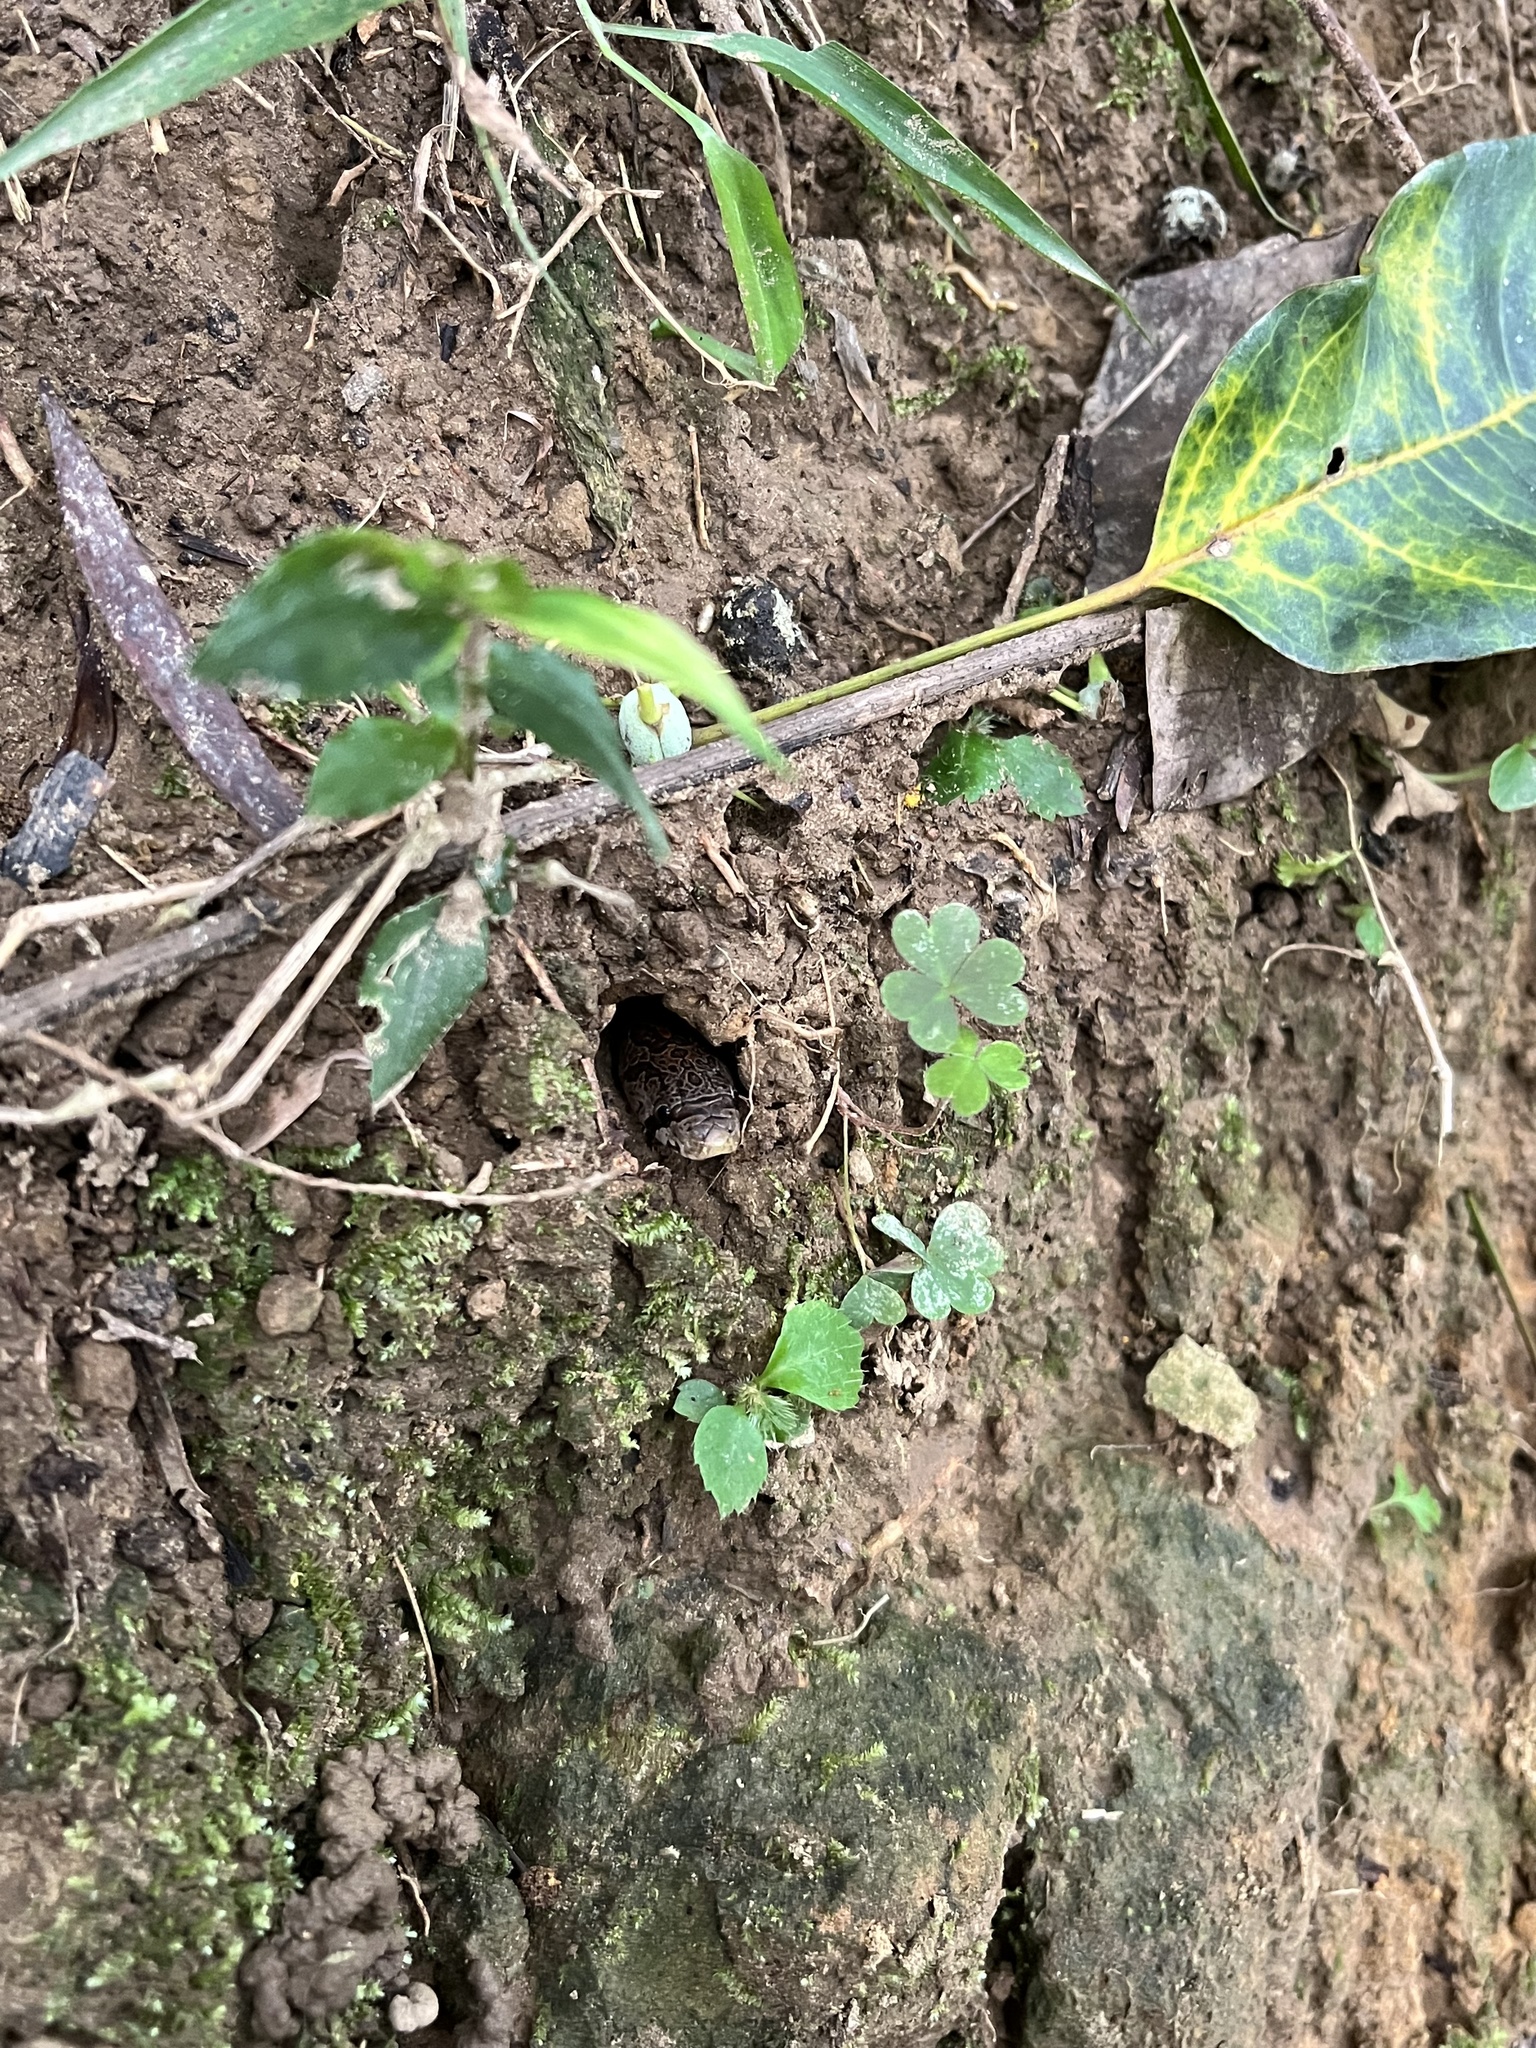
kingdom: Animalia
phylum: Chordata
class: Squamata
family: Colubridae
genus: Oligodon
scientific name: Oligodon formosanus
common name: Formosa kukri snake
